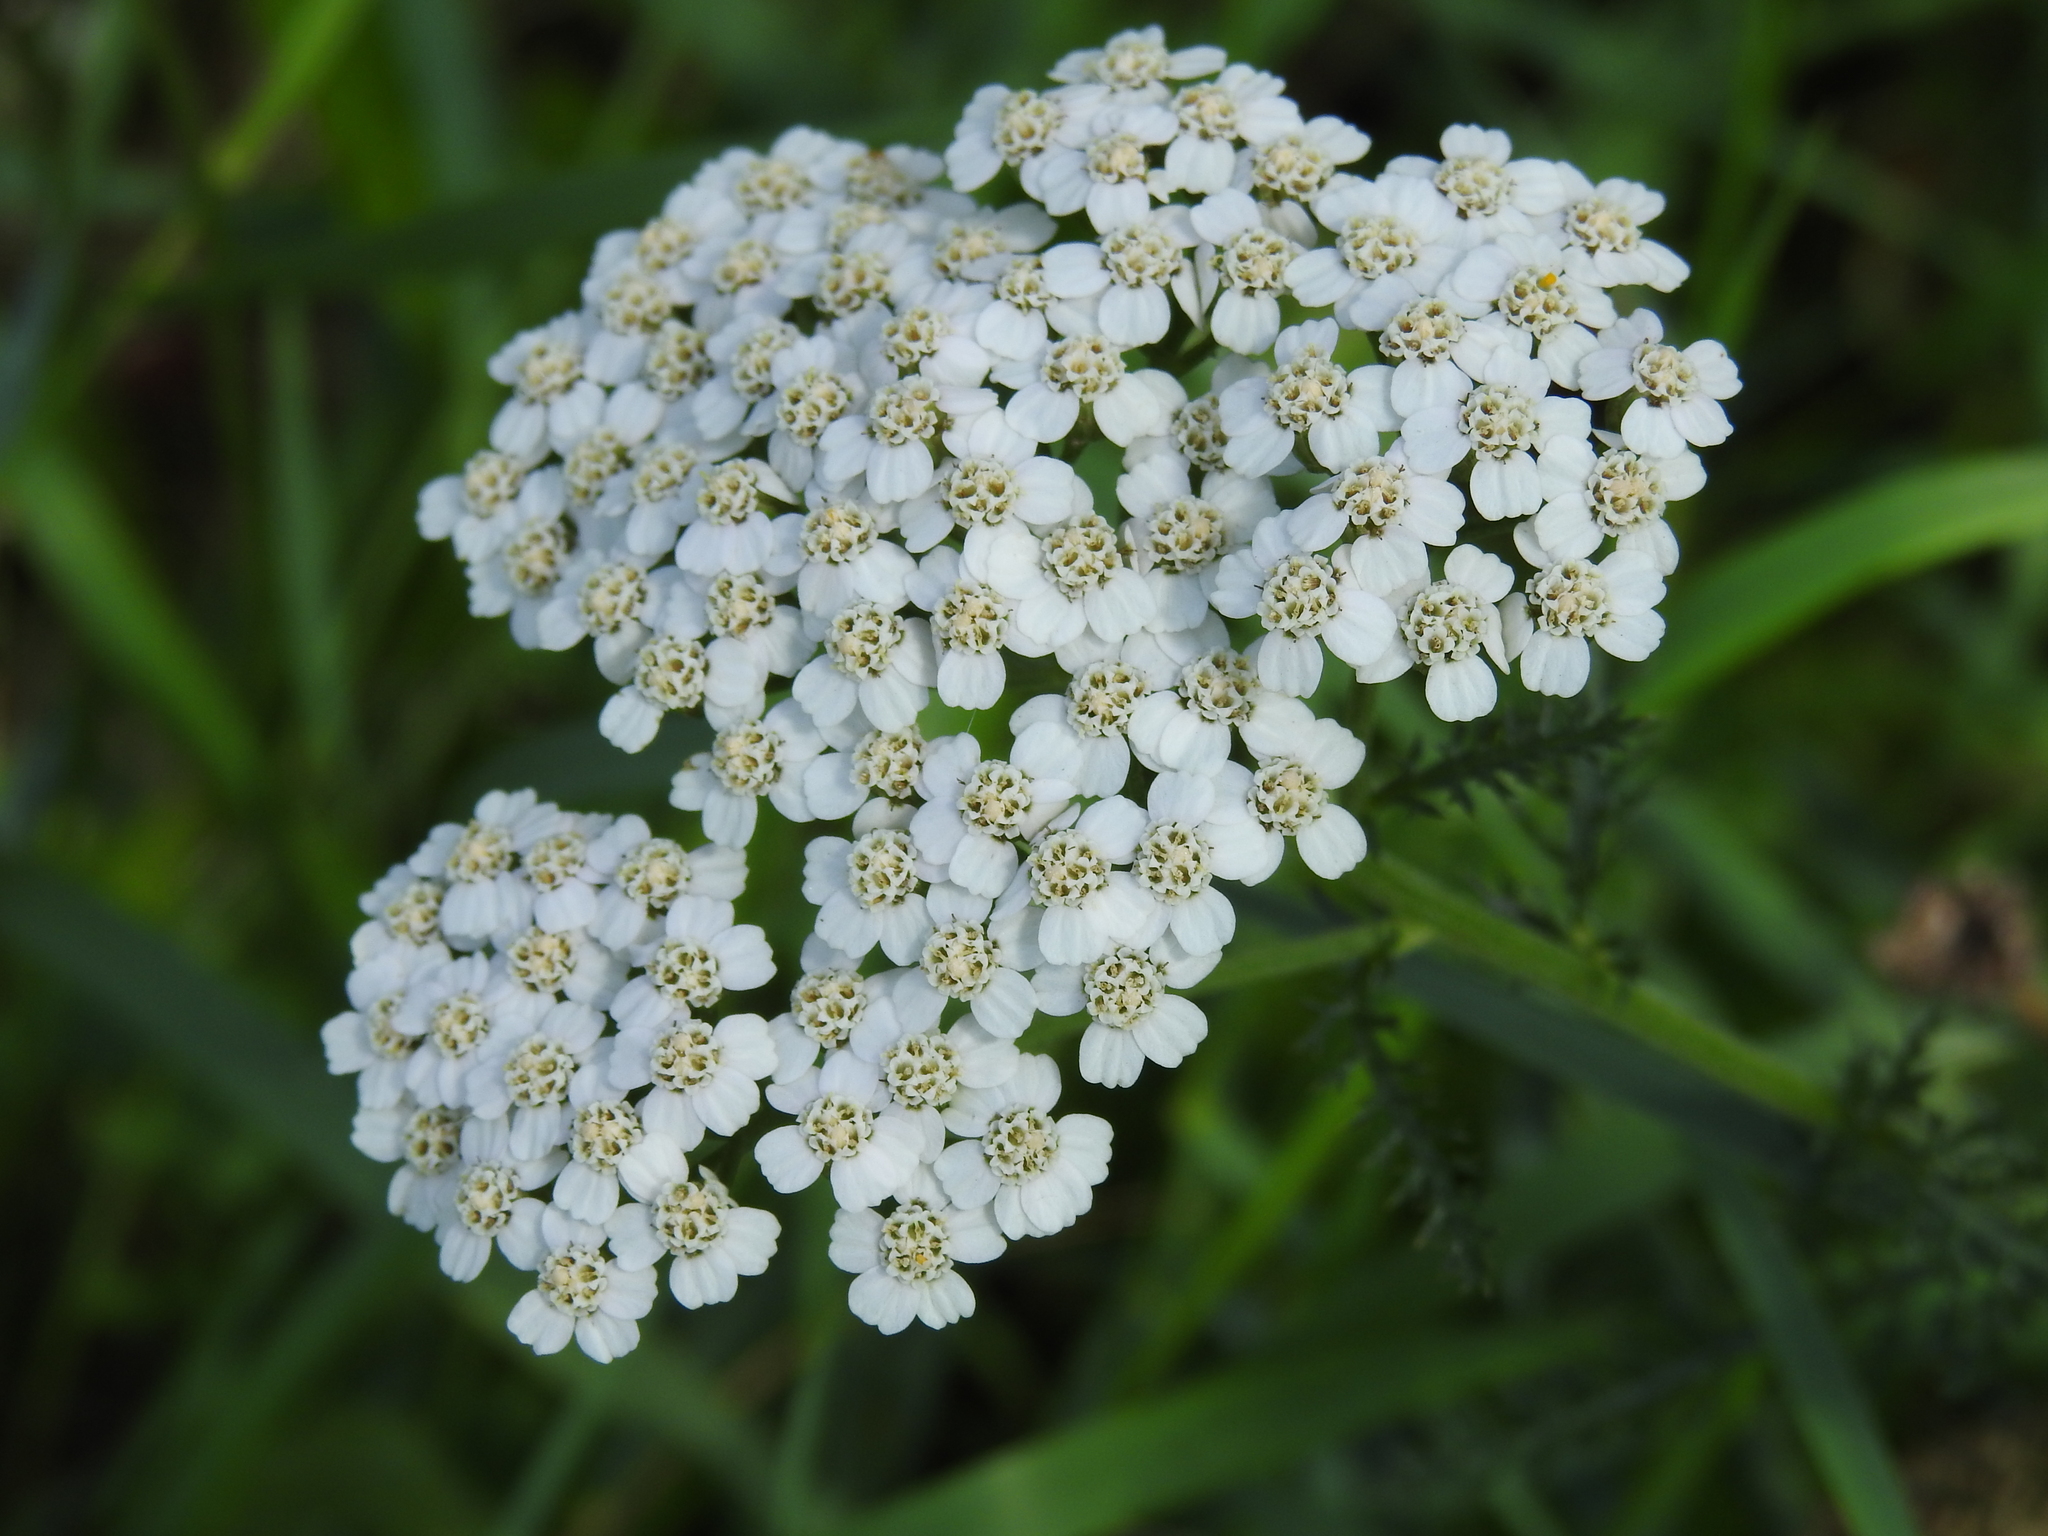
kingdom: Plantae
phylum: Tracheophyta
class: Magnoliopsida
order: Asterales
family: Asteraceae
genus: Achillea
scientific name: Achillea millefolium
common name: Yarrow
